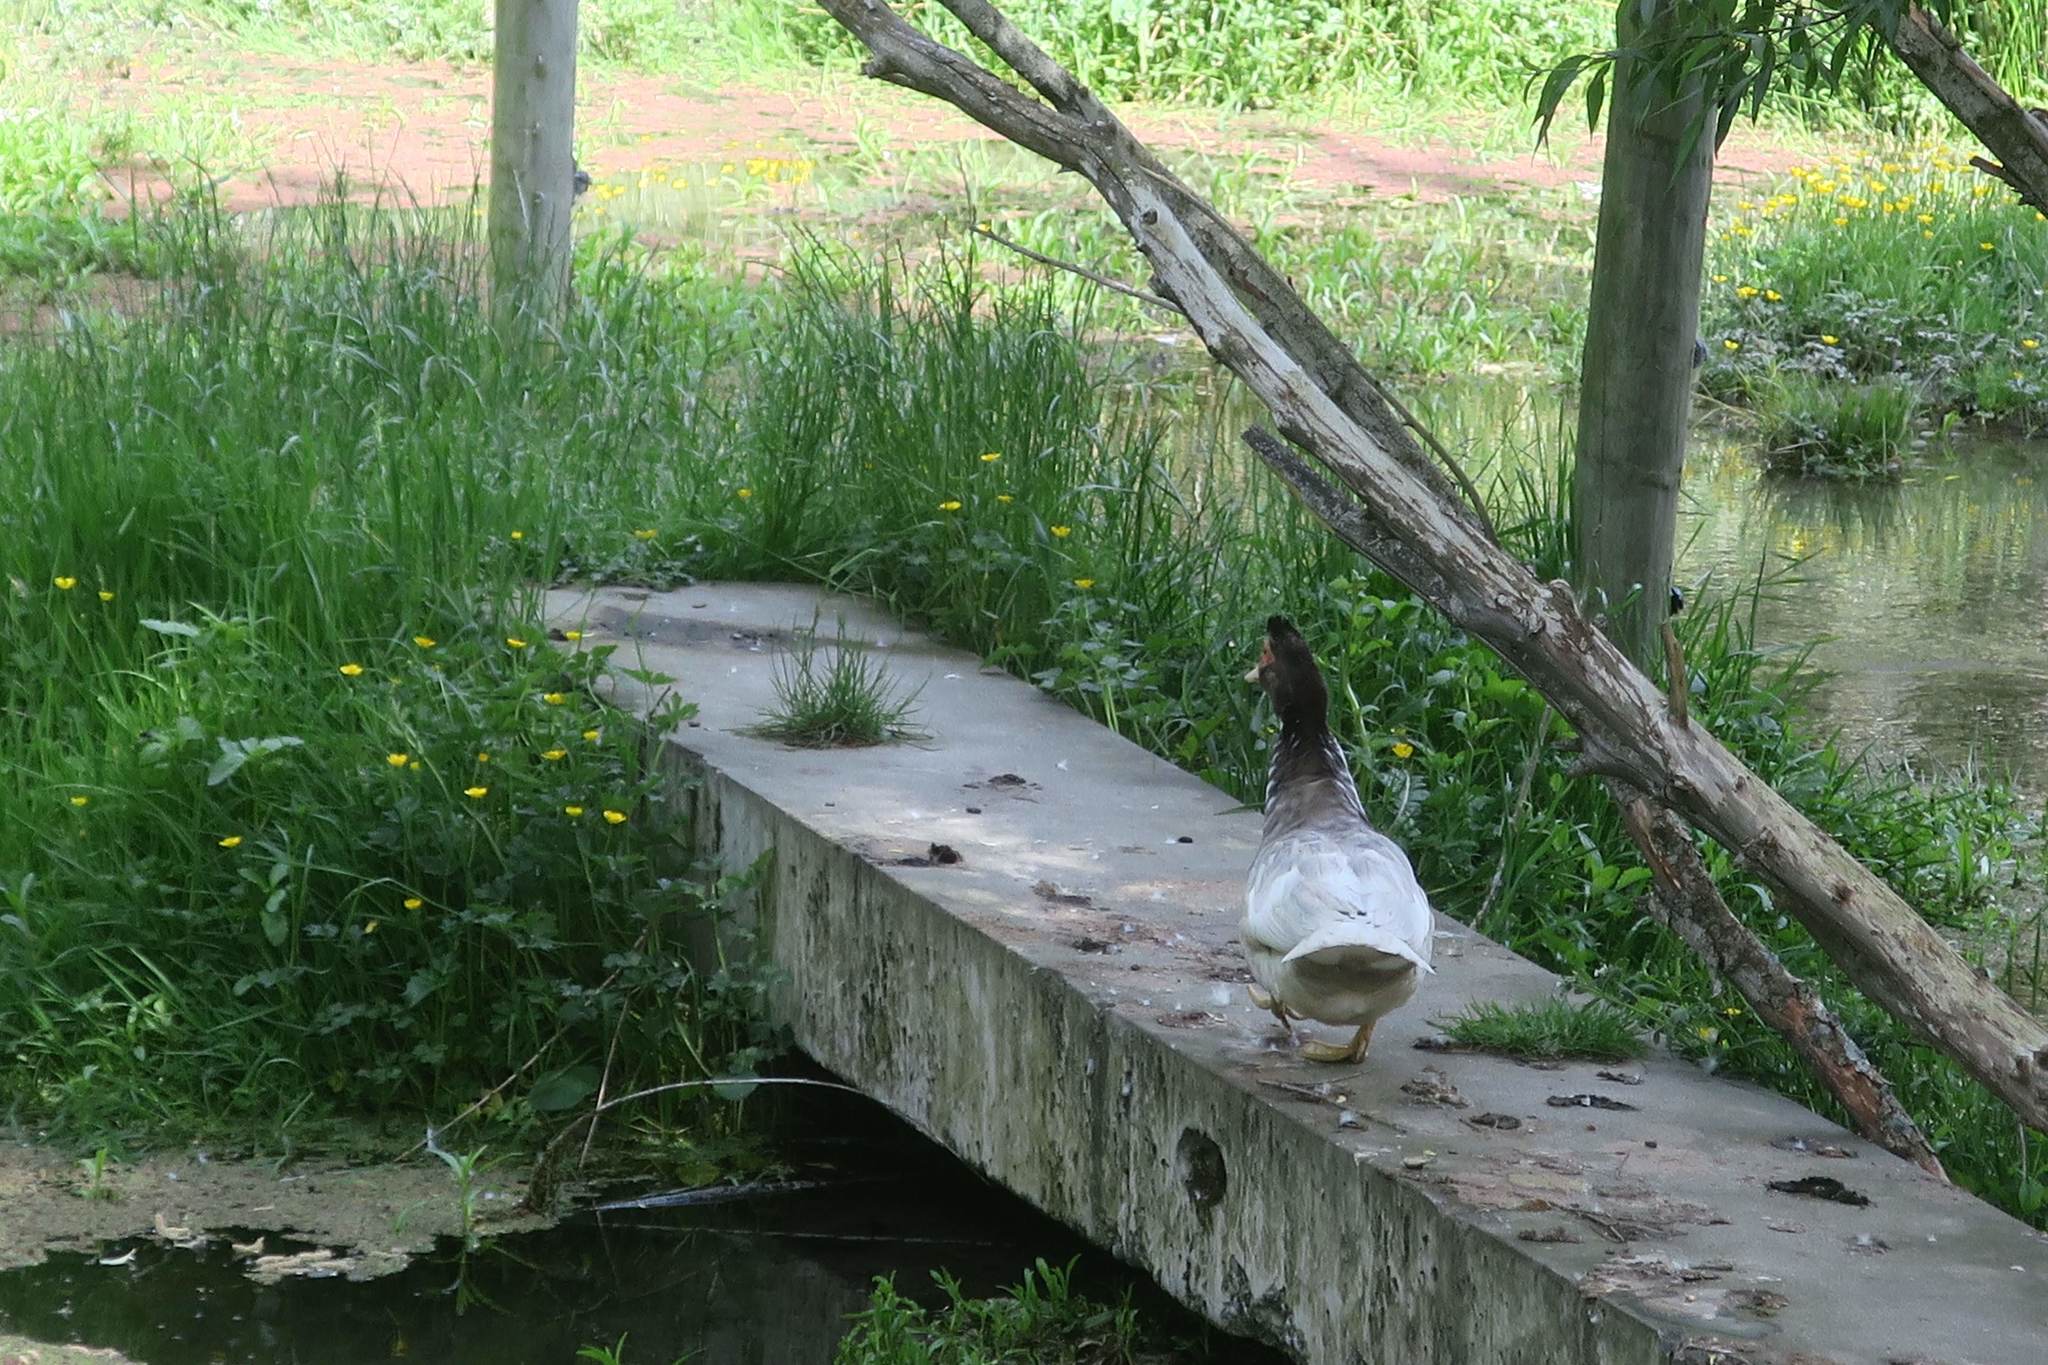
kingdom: Animalia
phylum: Chordata
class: Aves
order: Anseriformes
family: Anatidae
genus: Cairina
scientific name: Cairina moschata
